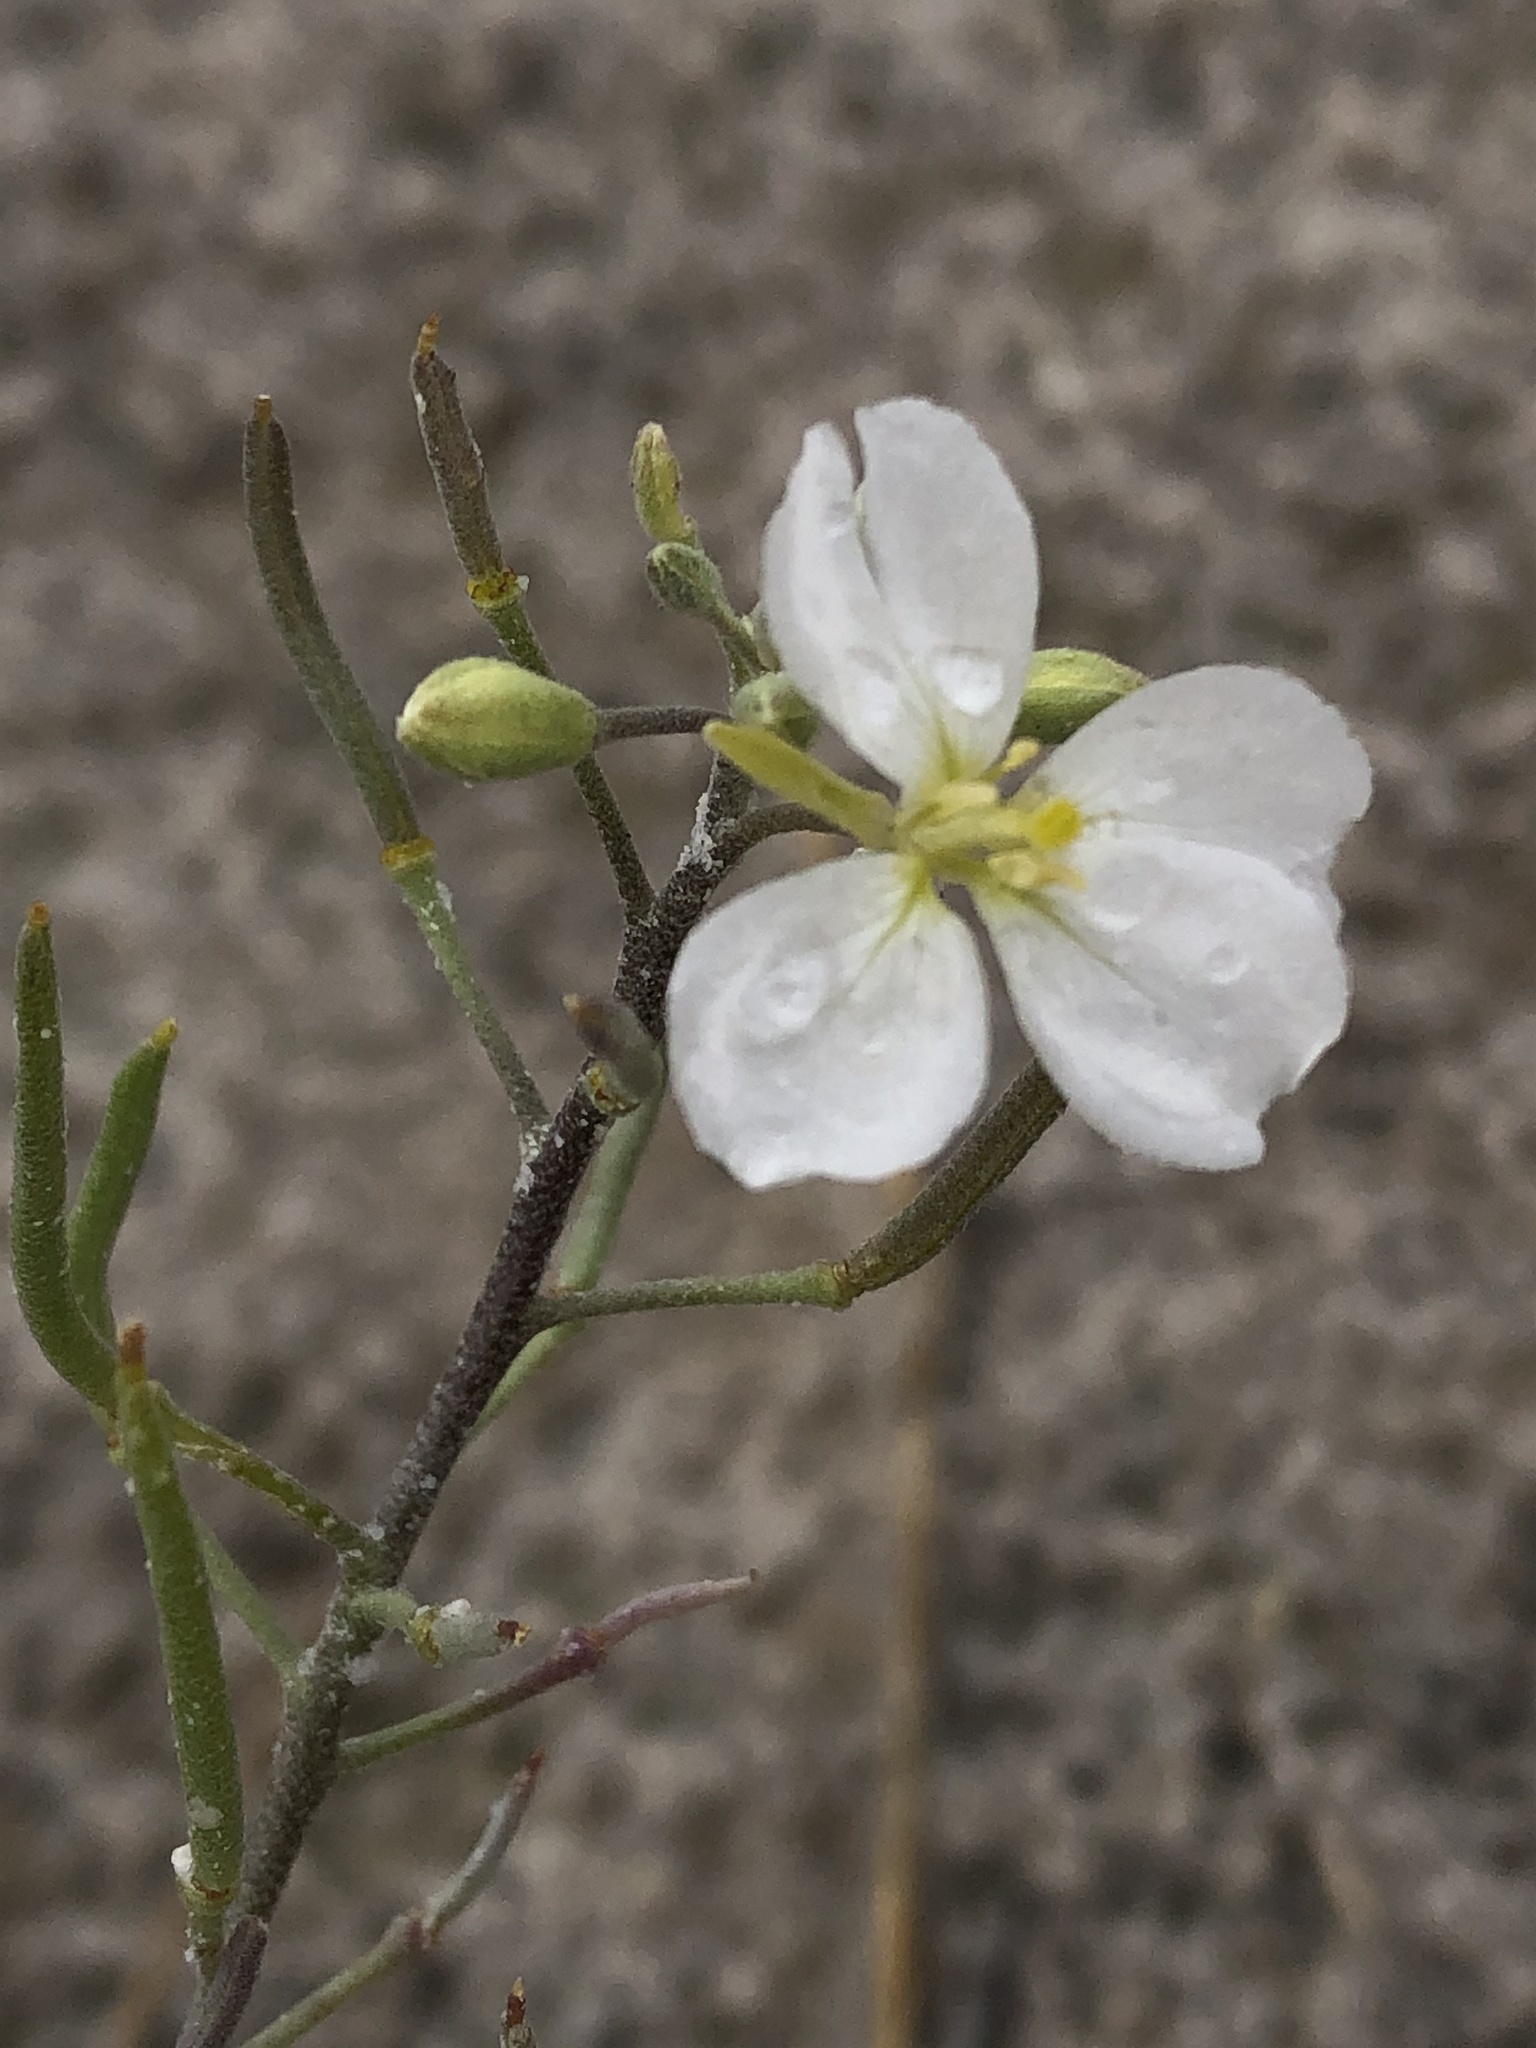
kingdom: Plantae
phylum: Tracheophyta
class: Magnoliopsida
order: Brassicales
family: Brassicaceae
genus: Nerisyrenia
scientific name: Nerisyrenia linearifolia
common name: White sands fan mustard
